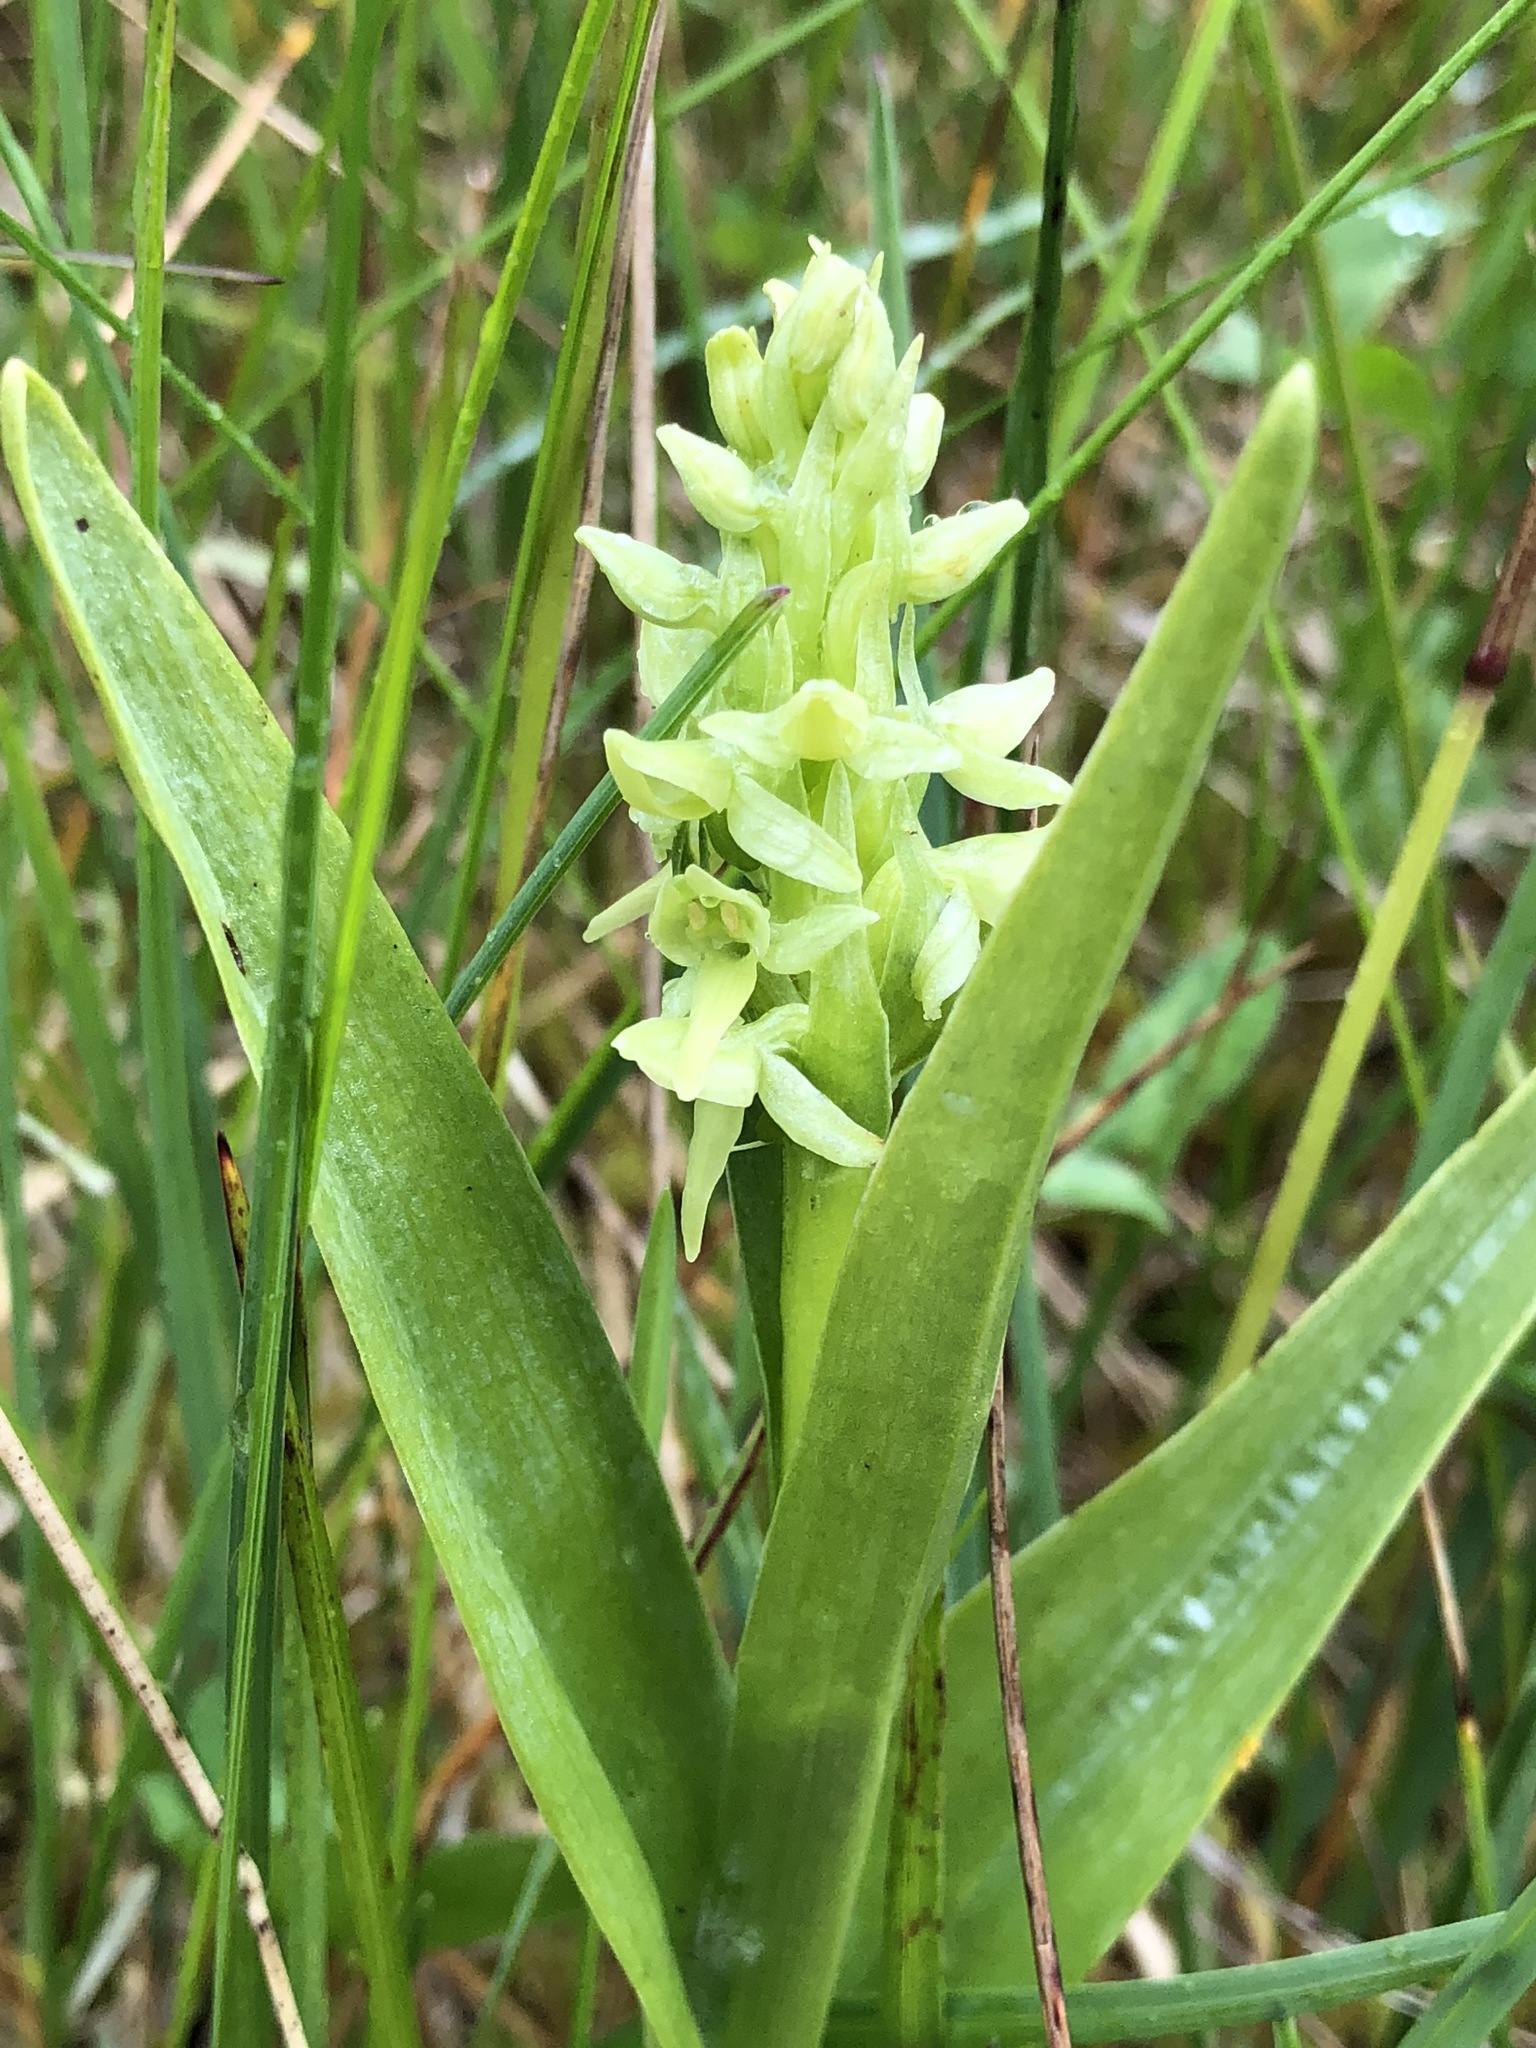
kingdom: Plantae
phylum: Tracheophyta
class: Liliopsida
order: Asparagales
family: Orchidaceae
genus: Platanthera
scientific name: Platanthera convallariifolia
